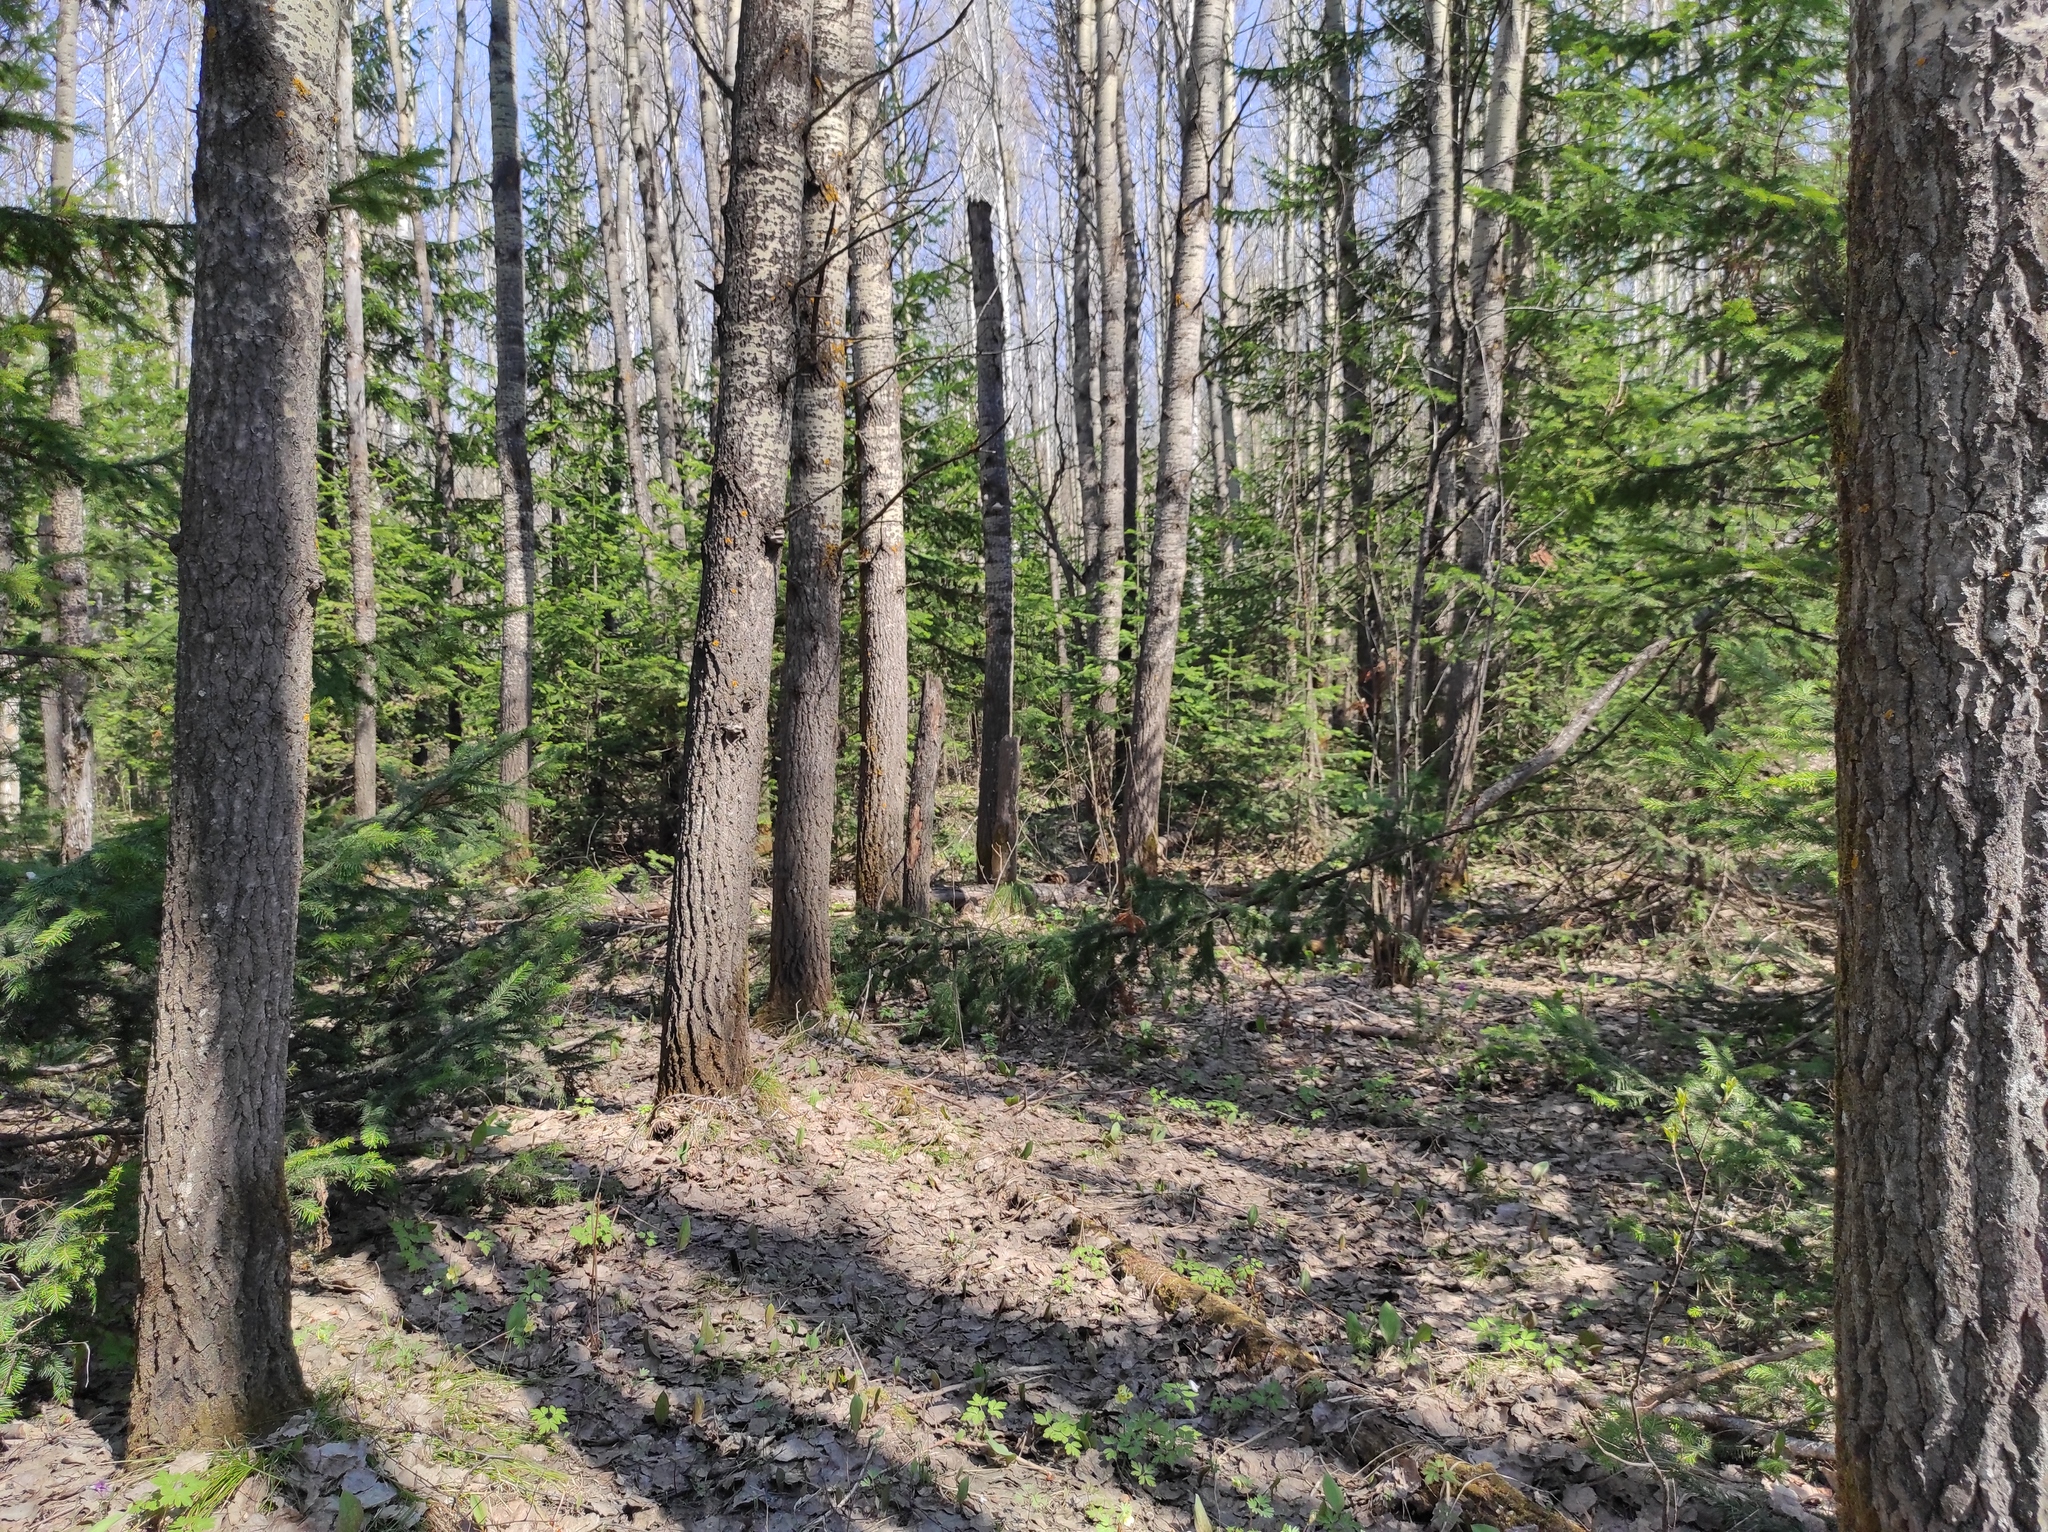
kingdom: Plantae
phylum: Tracheophyta
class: Pinopsida
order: Pinales
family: Pinaceae
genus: Abies
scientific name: Abies sibirica
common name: Siberian fir
